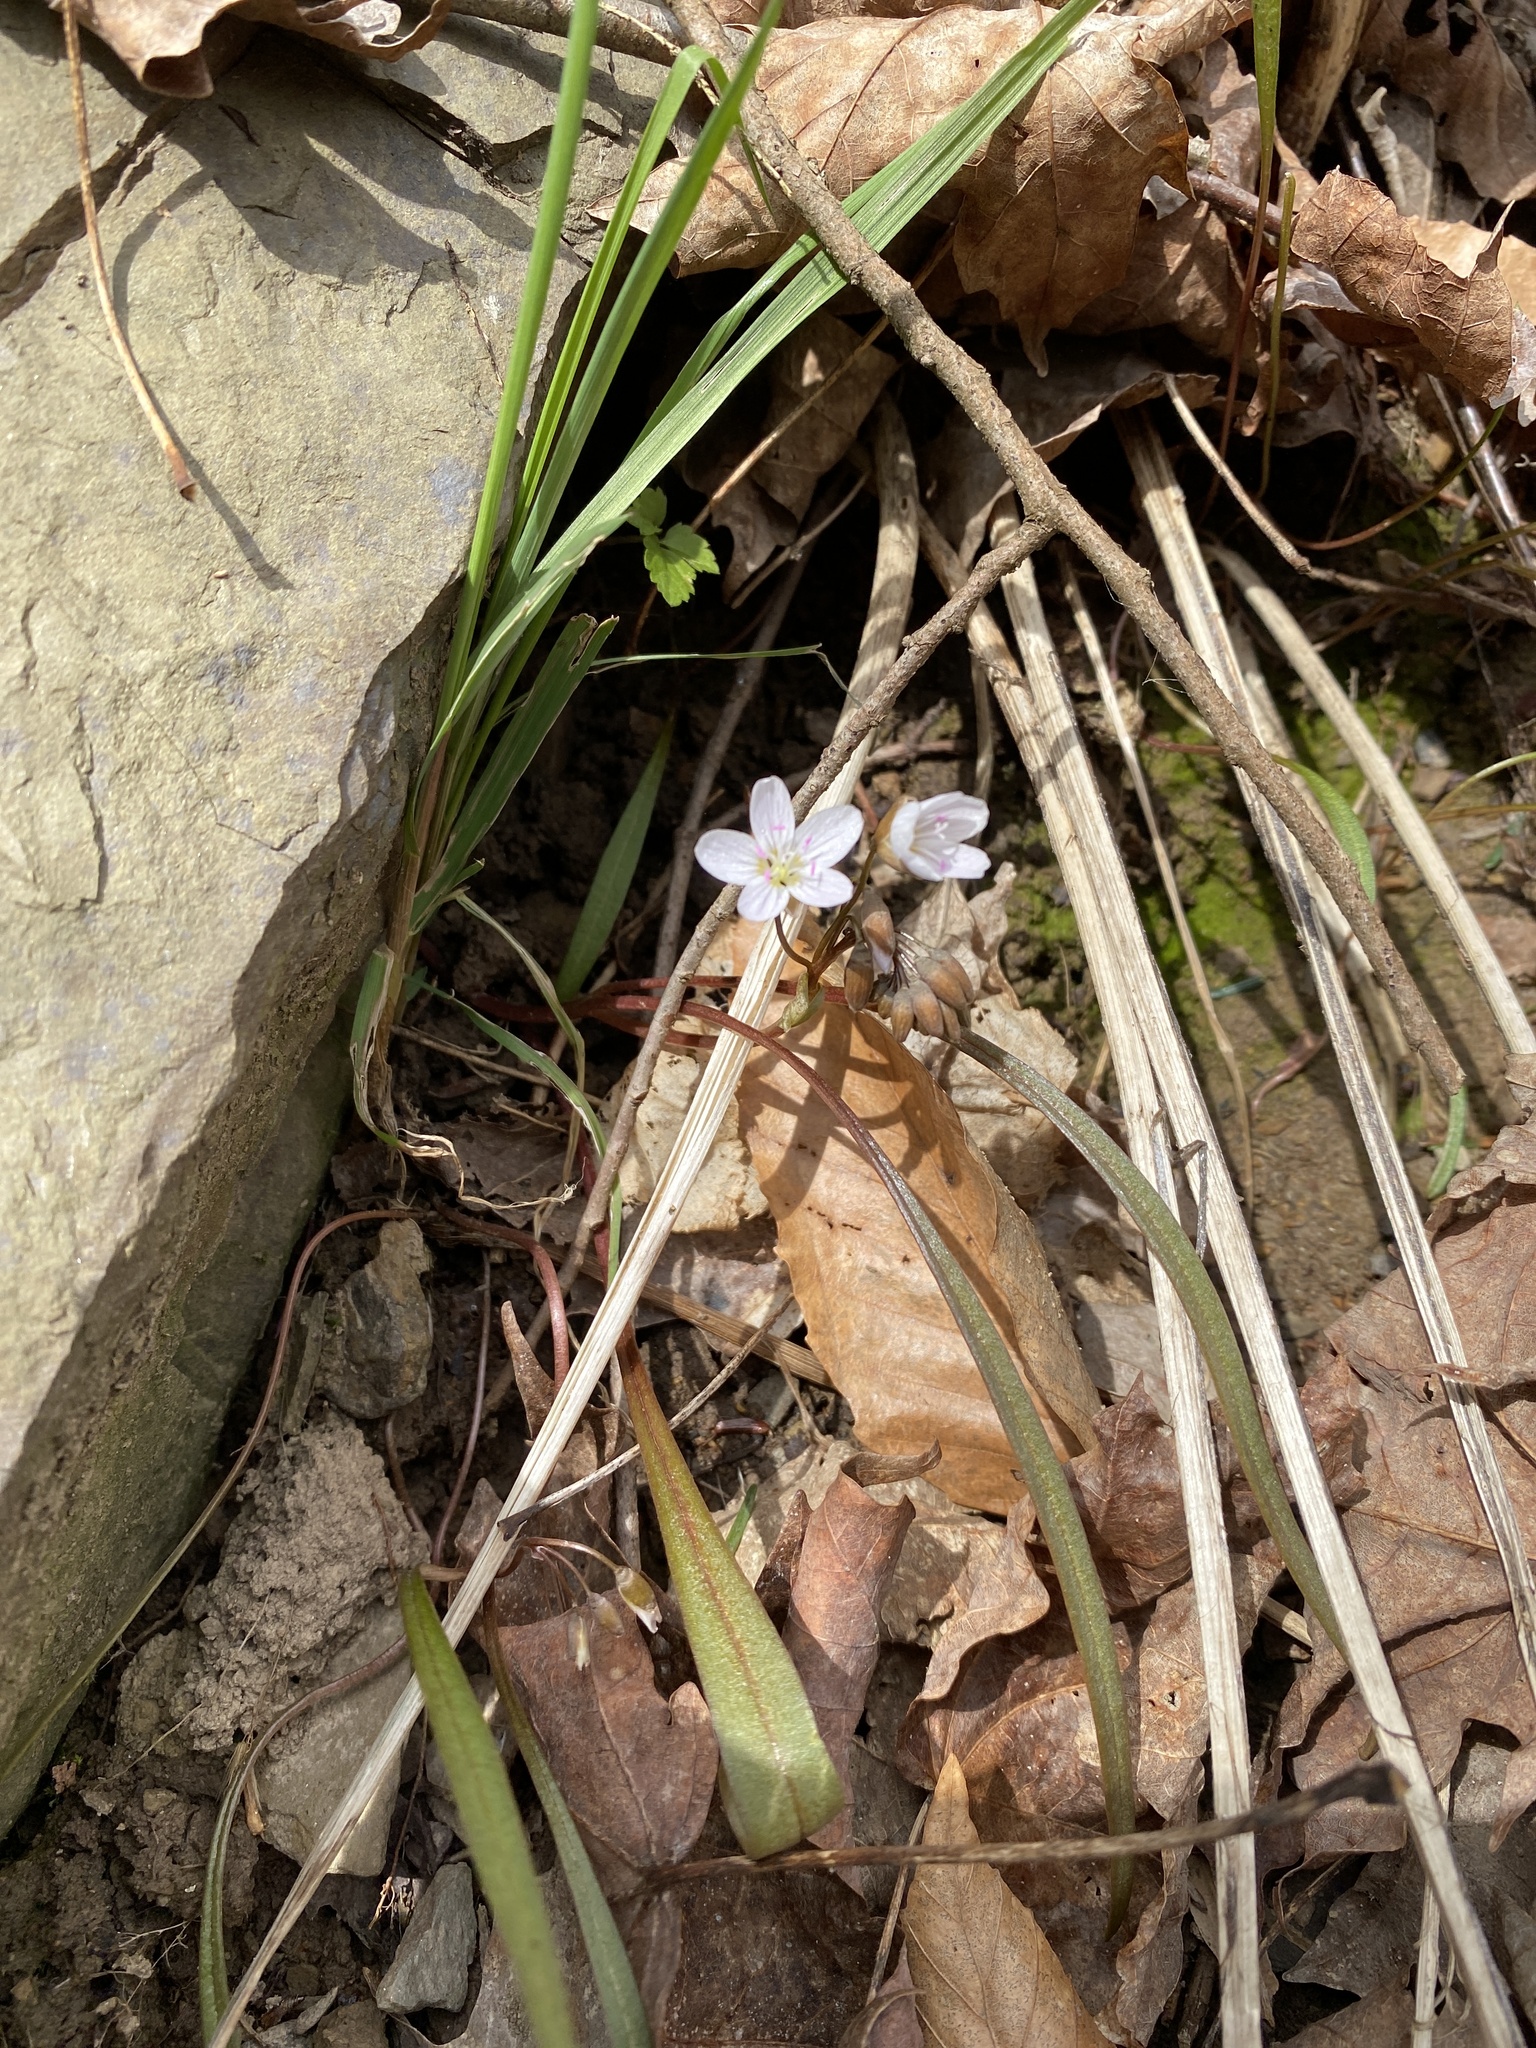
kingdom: Plantae
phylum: Tracheophyta
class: Magnoliopsida
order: Caryophyllales
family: Montiaceae
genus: Claytonia
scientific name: Claytonia virginica
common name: Virginia springbeauty
